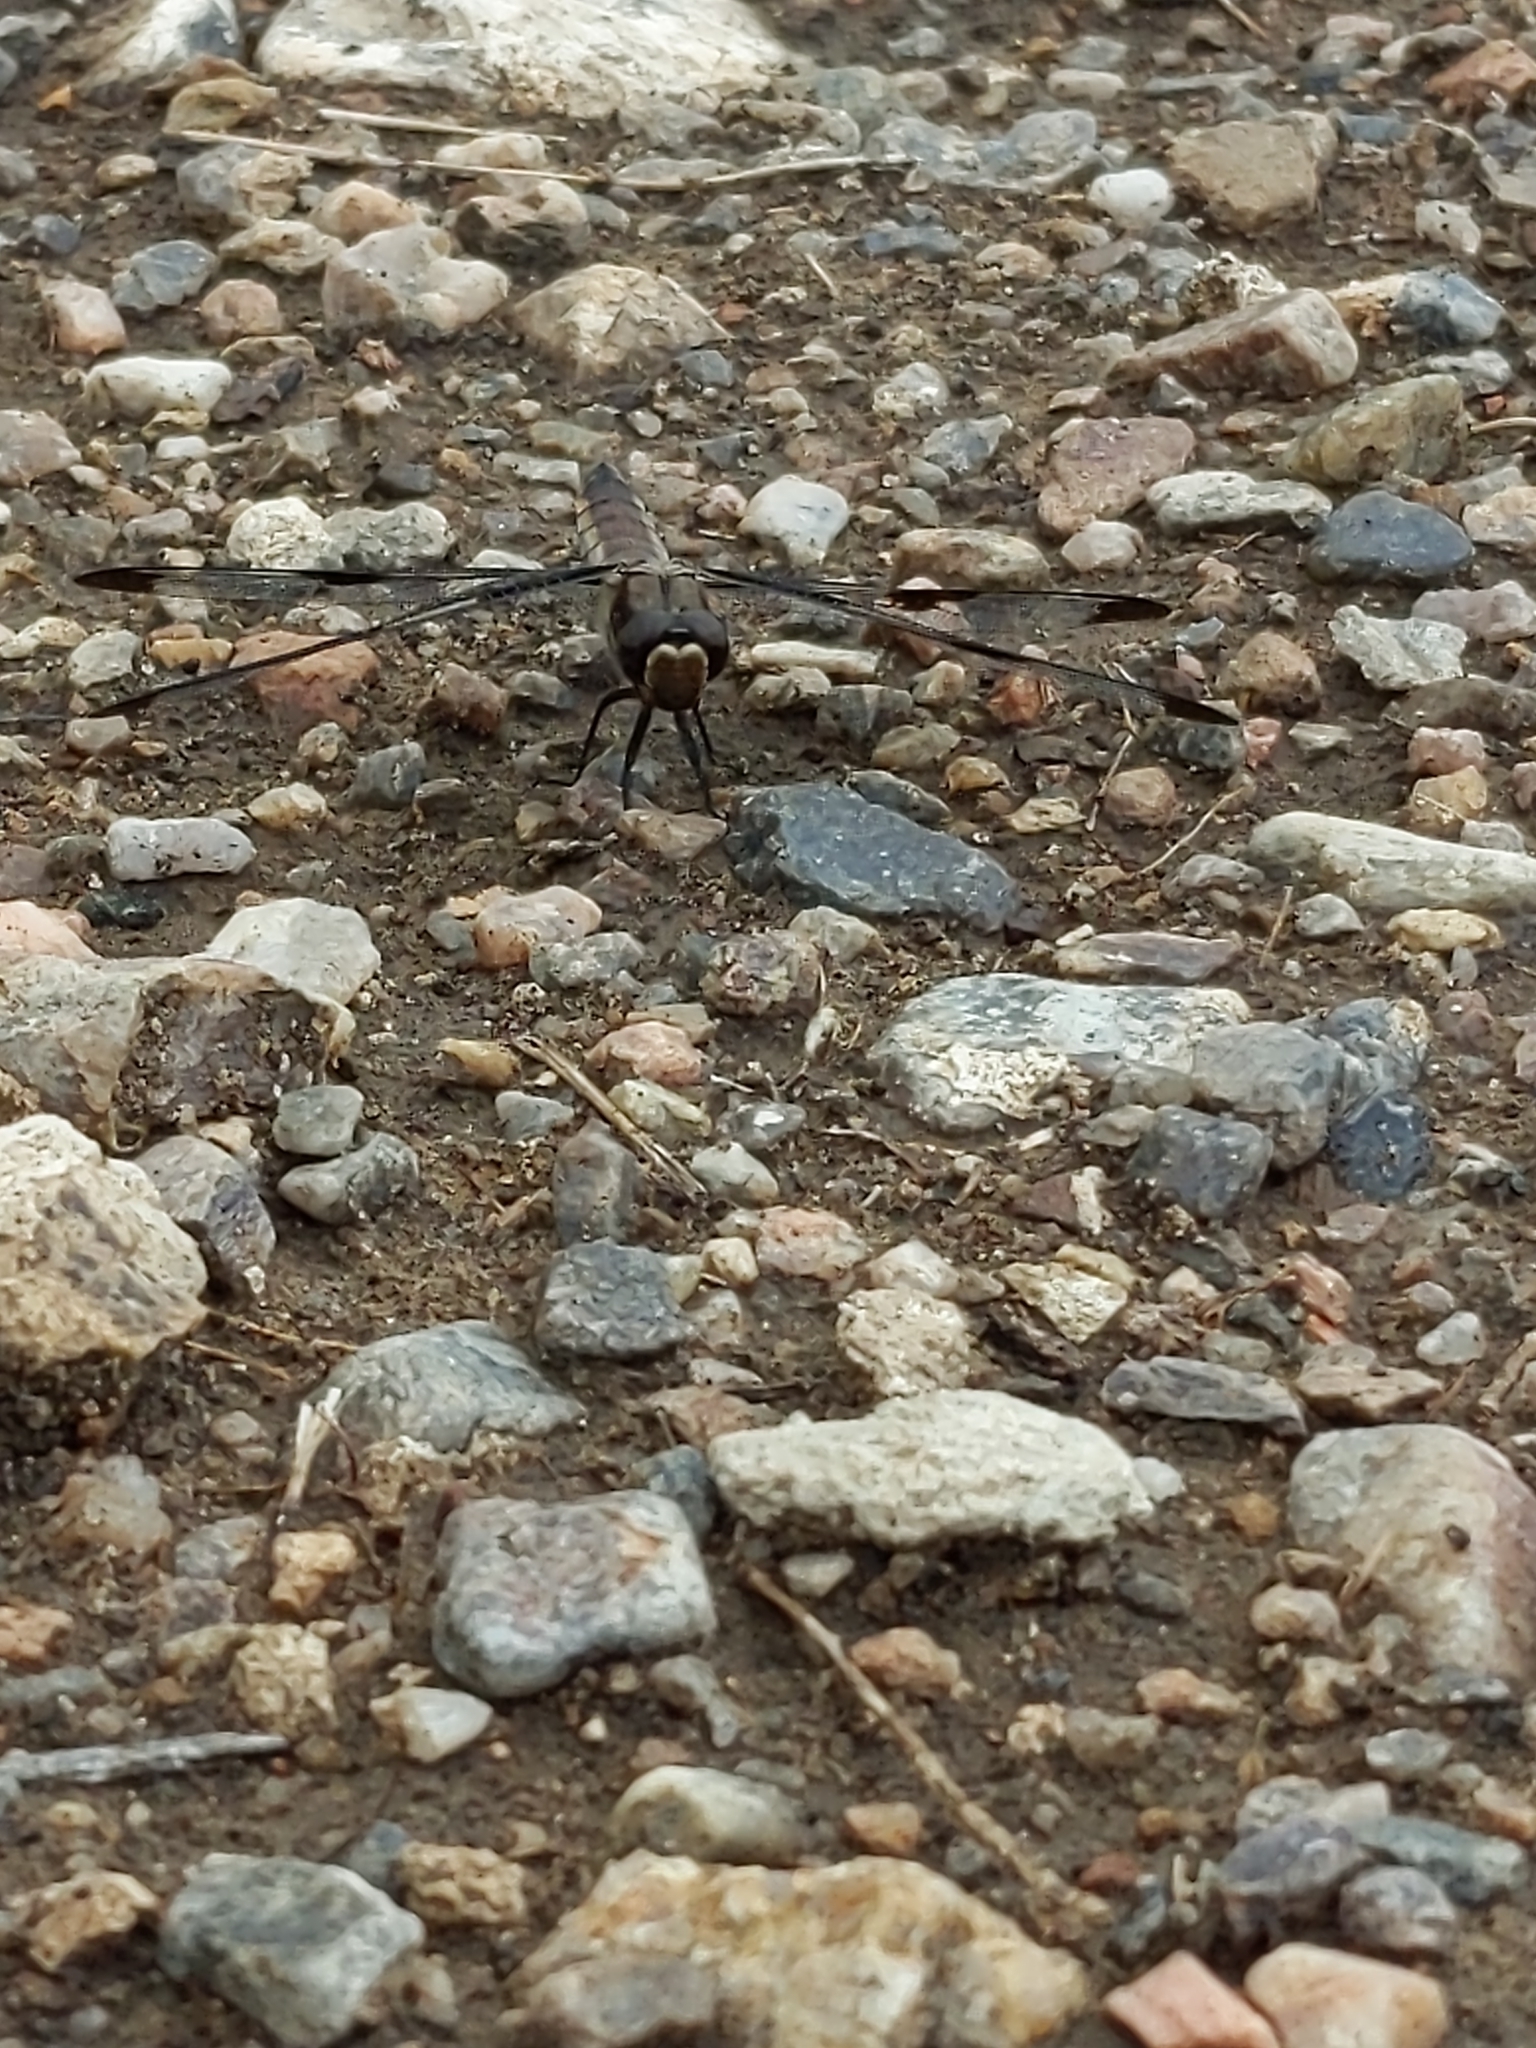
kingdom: Animalia
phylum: Arthropoda
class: Insecta
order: Odonata
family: Libellulidae
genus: Libellula
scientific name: Libellula pulchella
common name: Twelve-spotted skimmer
